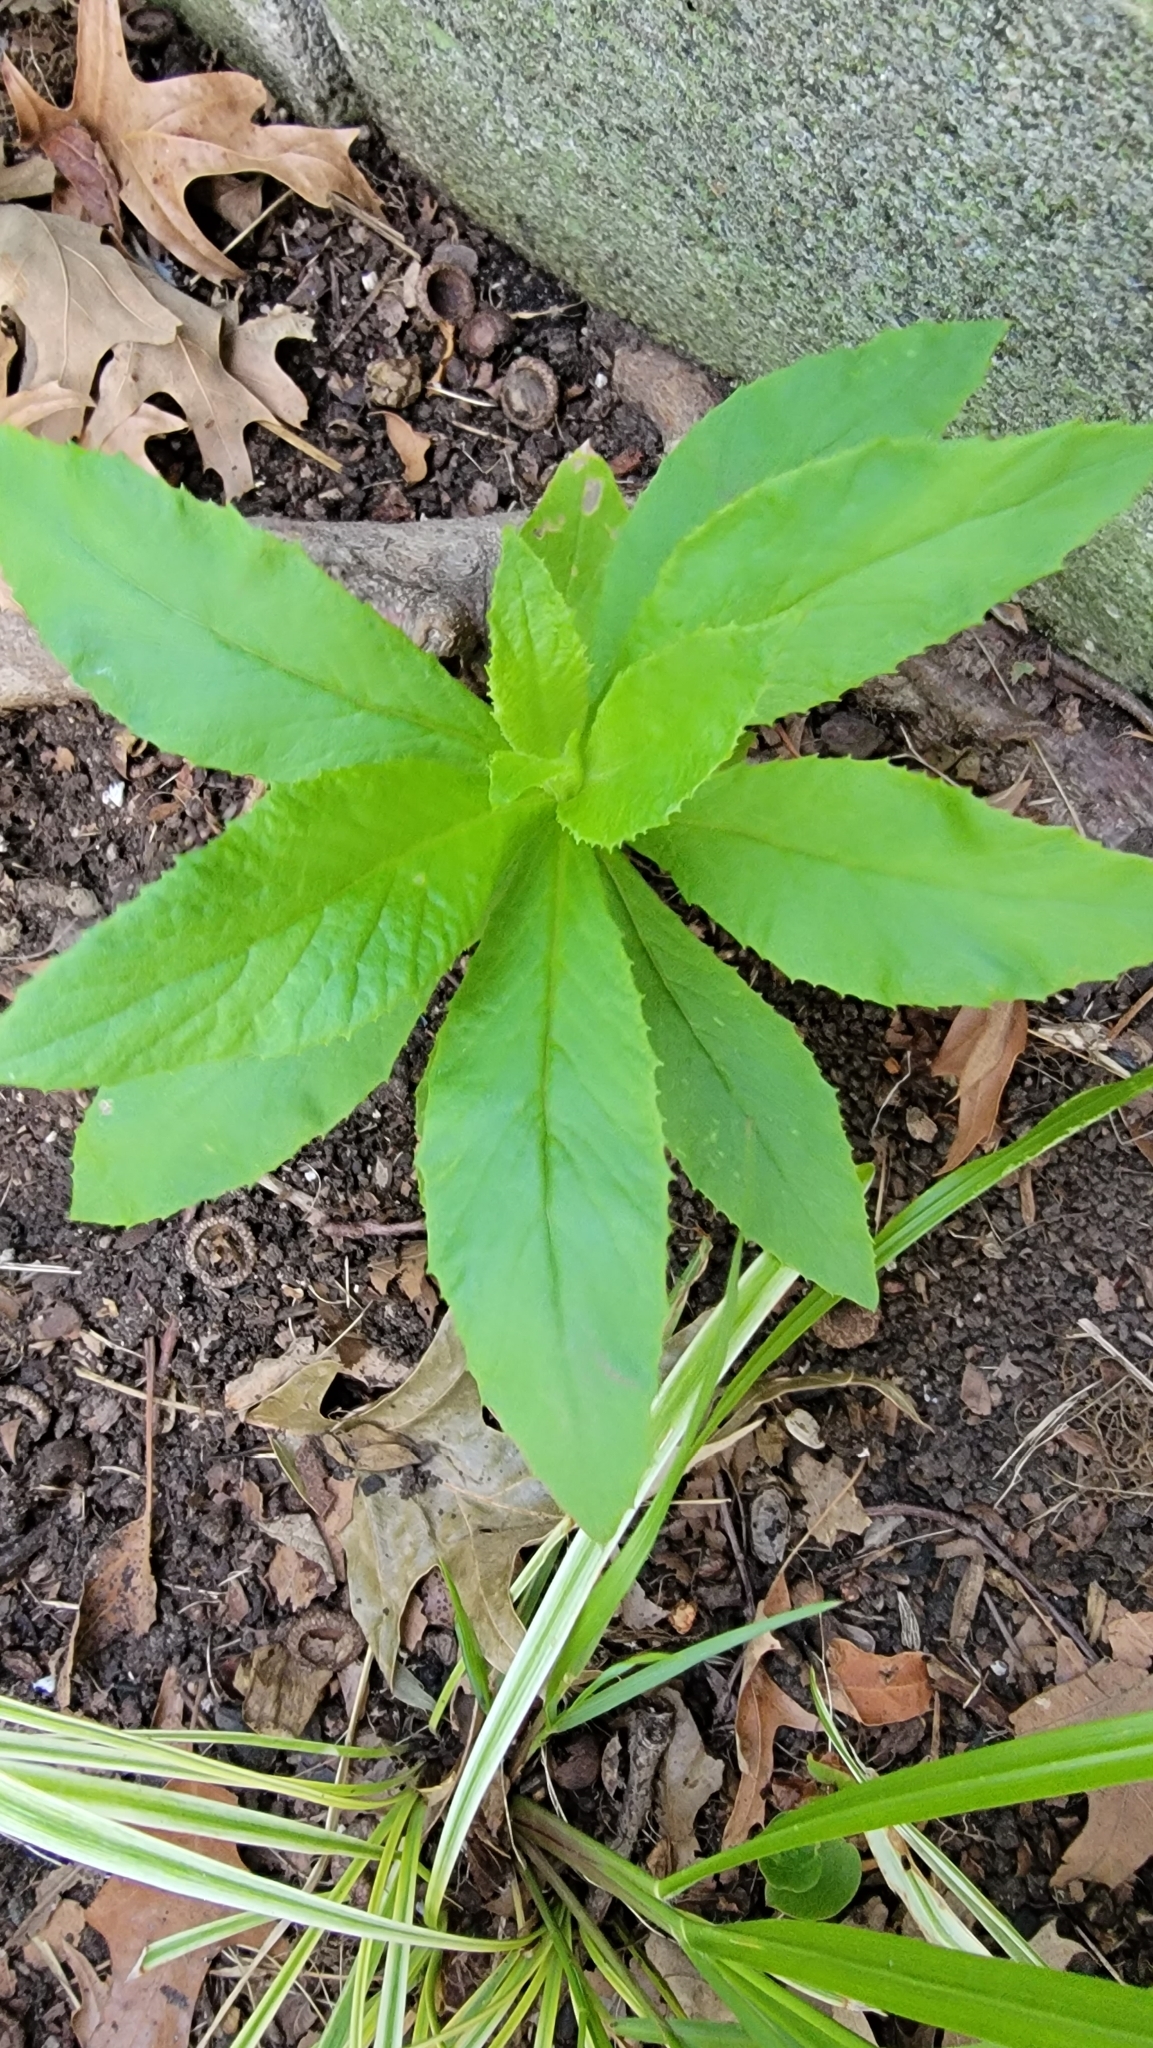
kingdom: Plantae
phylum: Tracheophyta
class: Magnoliopsida
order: Asterales
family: Asteraceae
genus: Erechtites
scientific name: Erechtites hieraciifolius
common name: American burnweed
